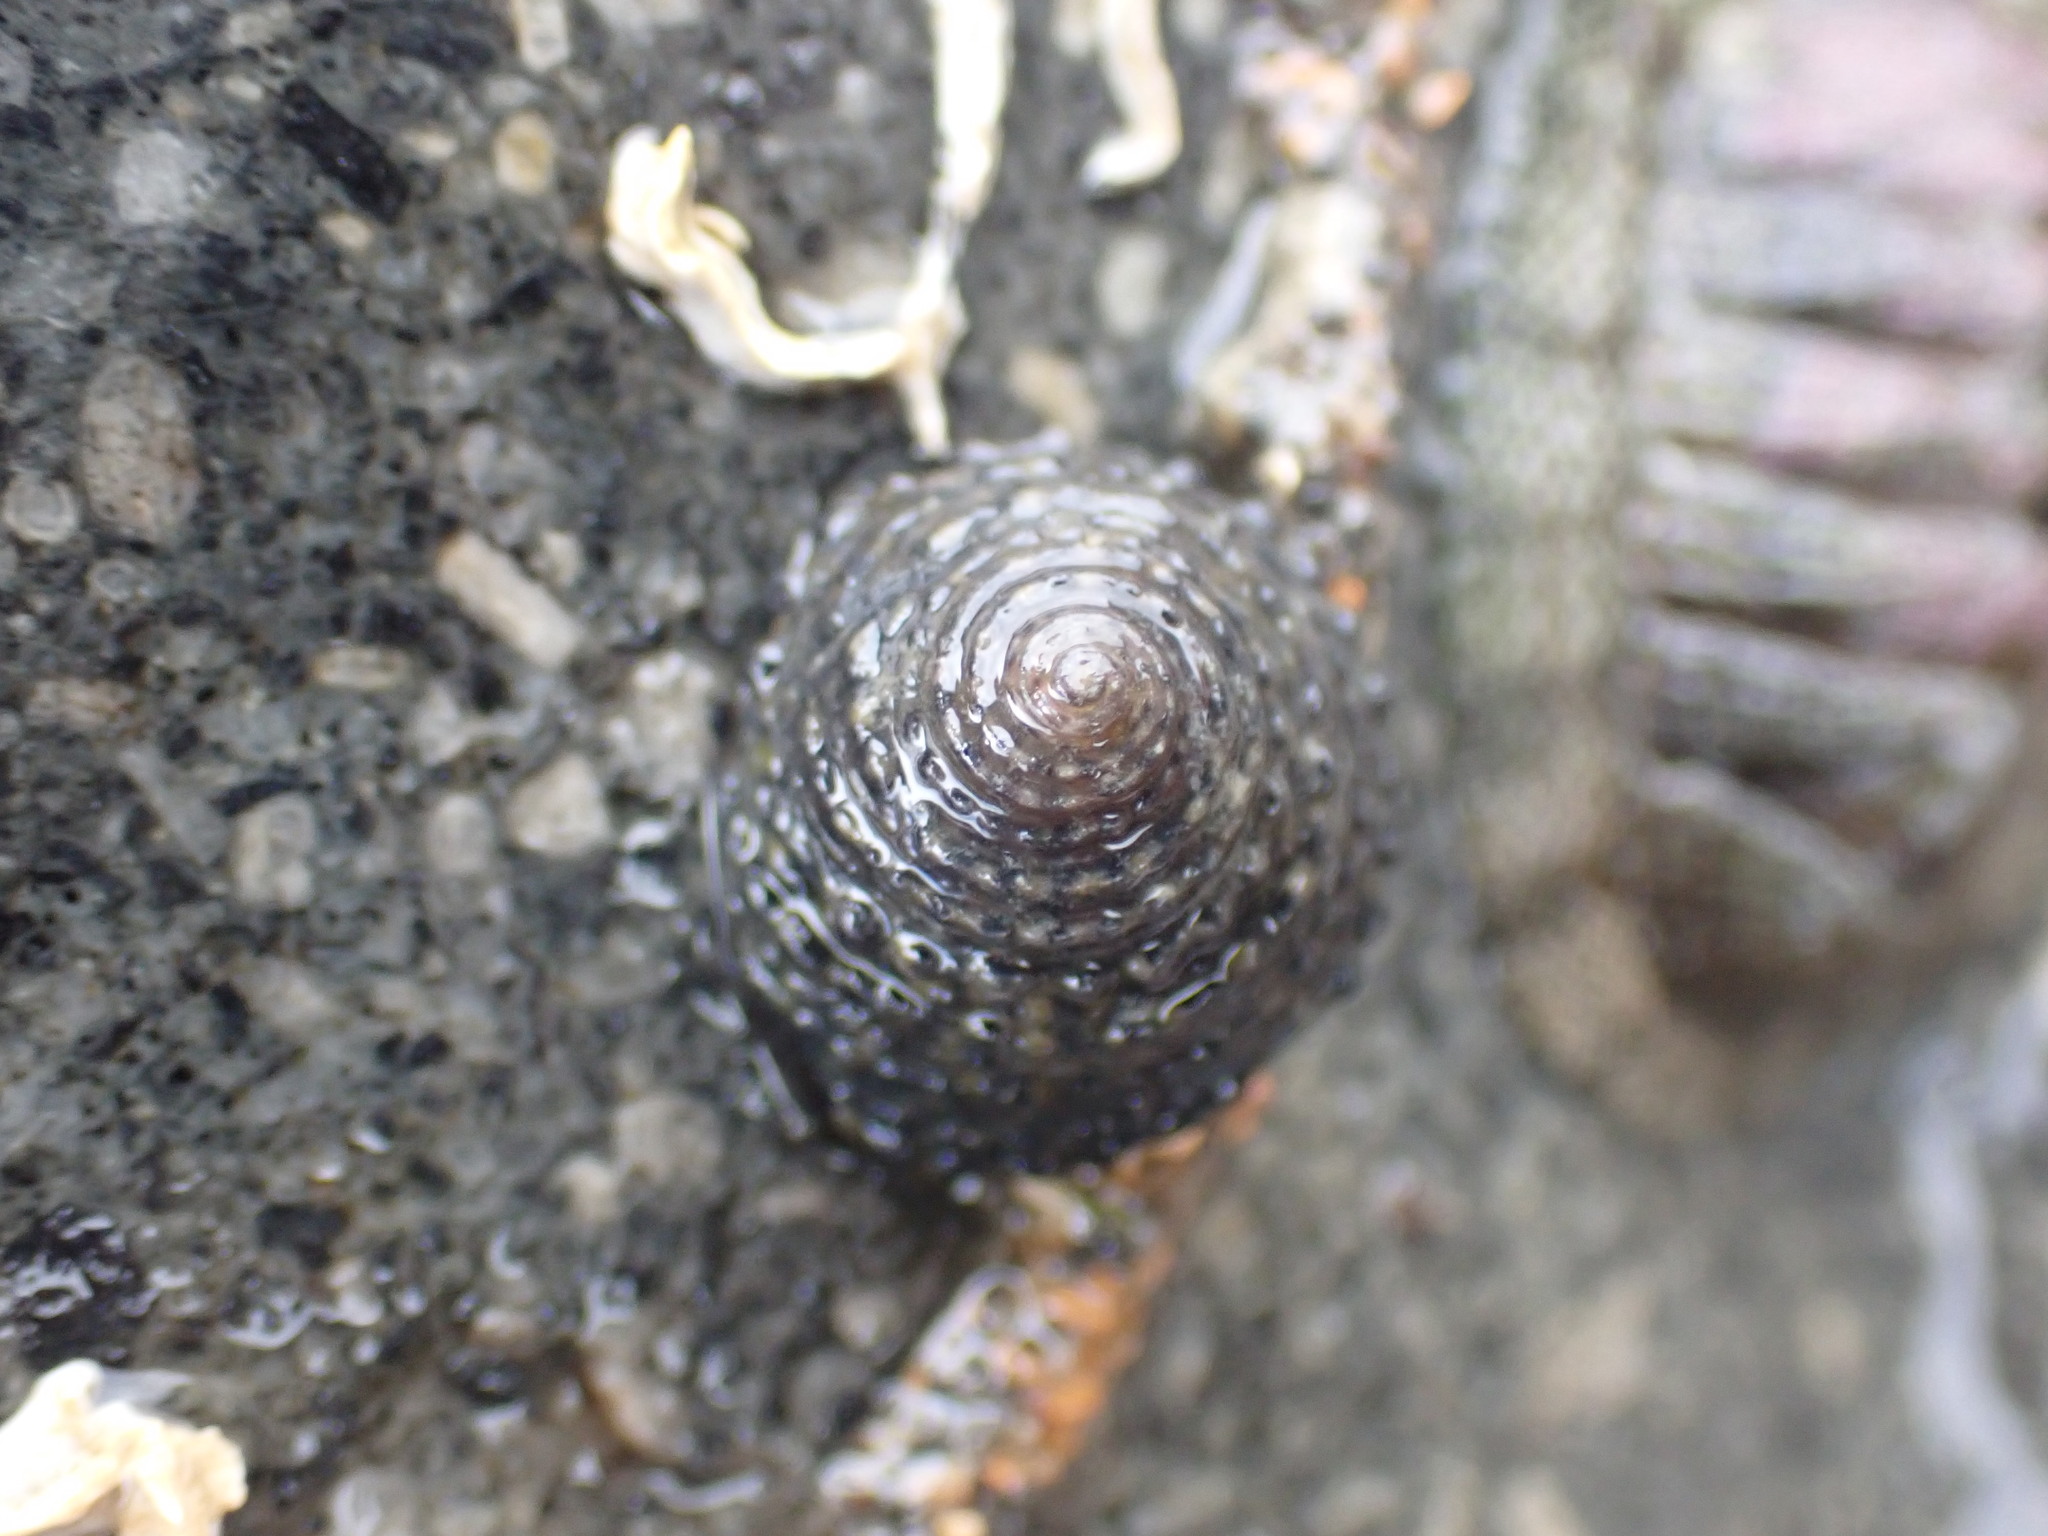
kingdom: Animalia
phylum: Mollusca
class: Gastropoda
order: Trochida
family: Trochidae
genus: Diloma
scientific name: Diloma bicanaliculatum
